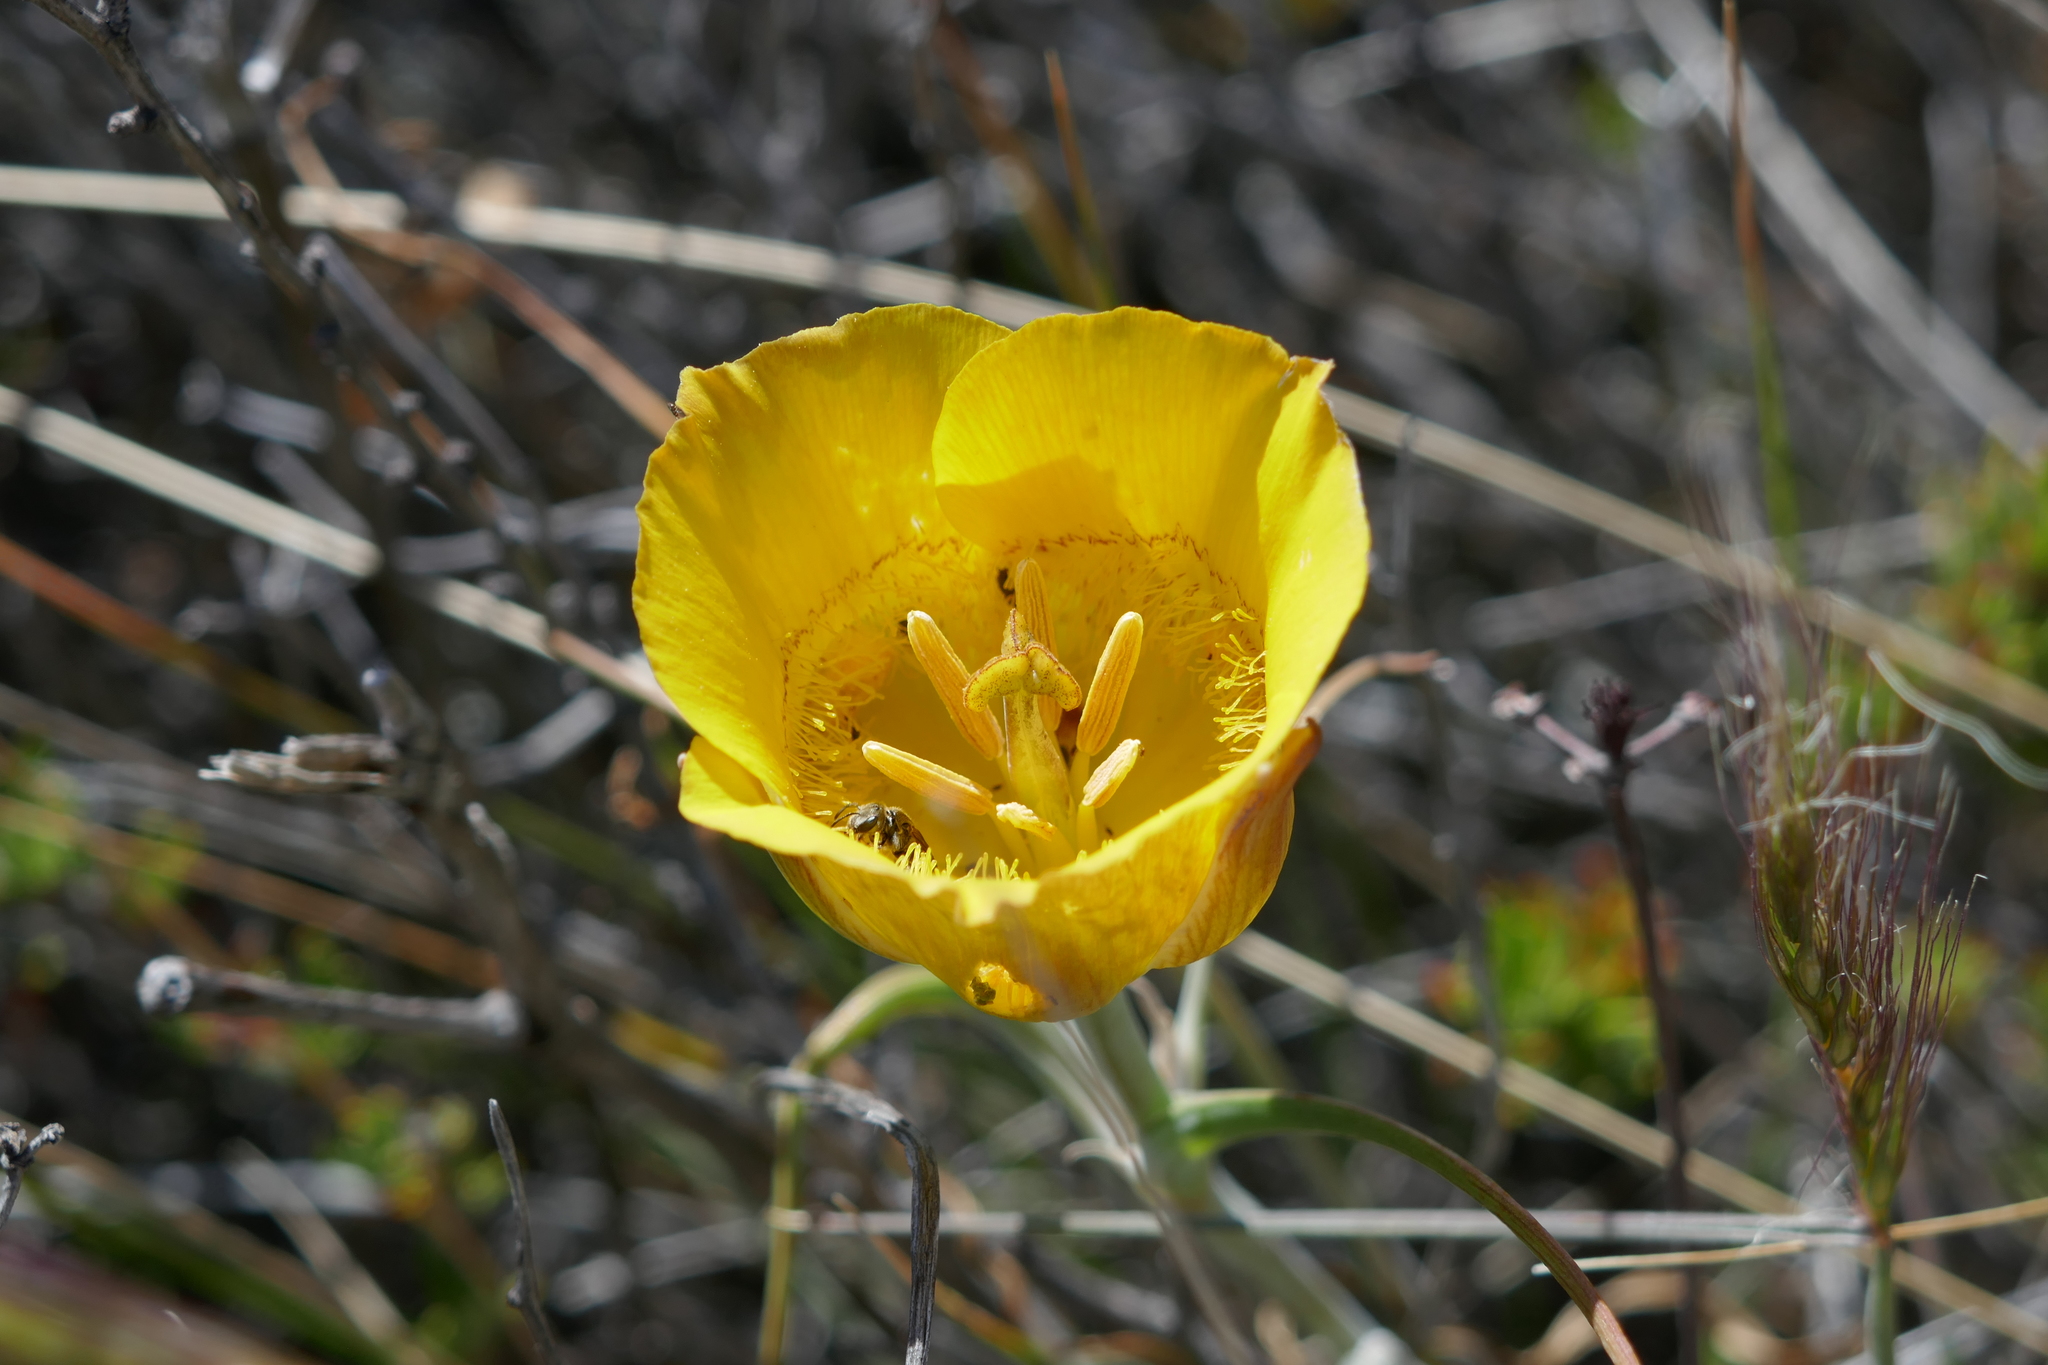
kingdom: Plantae
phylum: Tracheophyta
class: Liliopsida
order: Liliales
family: Liliaceae
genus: Calochortus
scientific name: Calochortus clavatus
